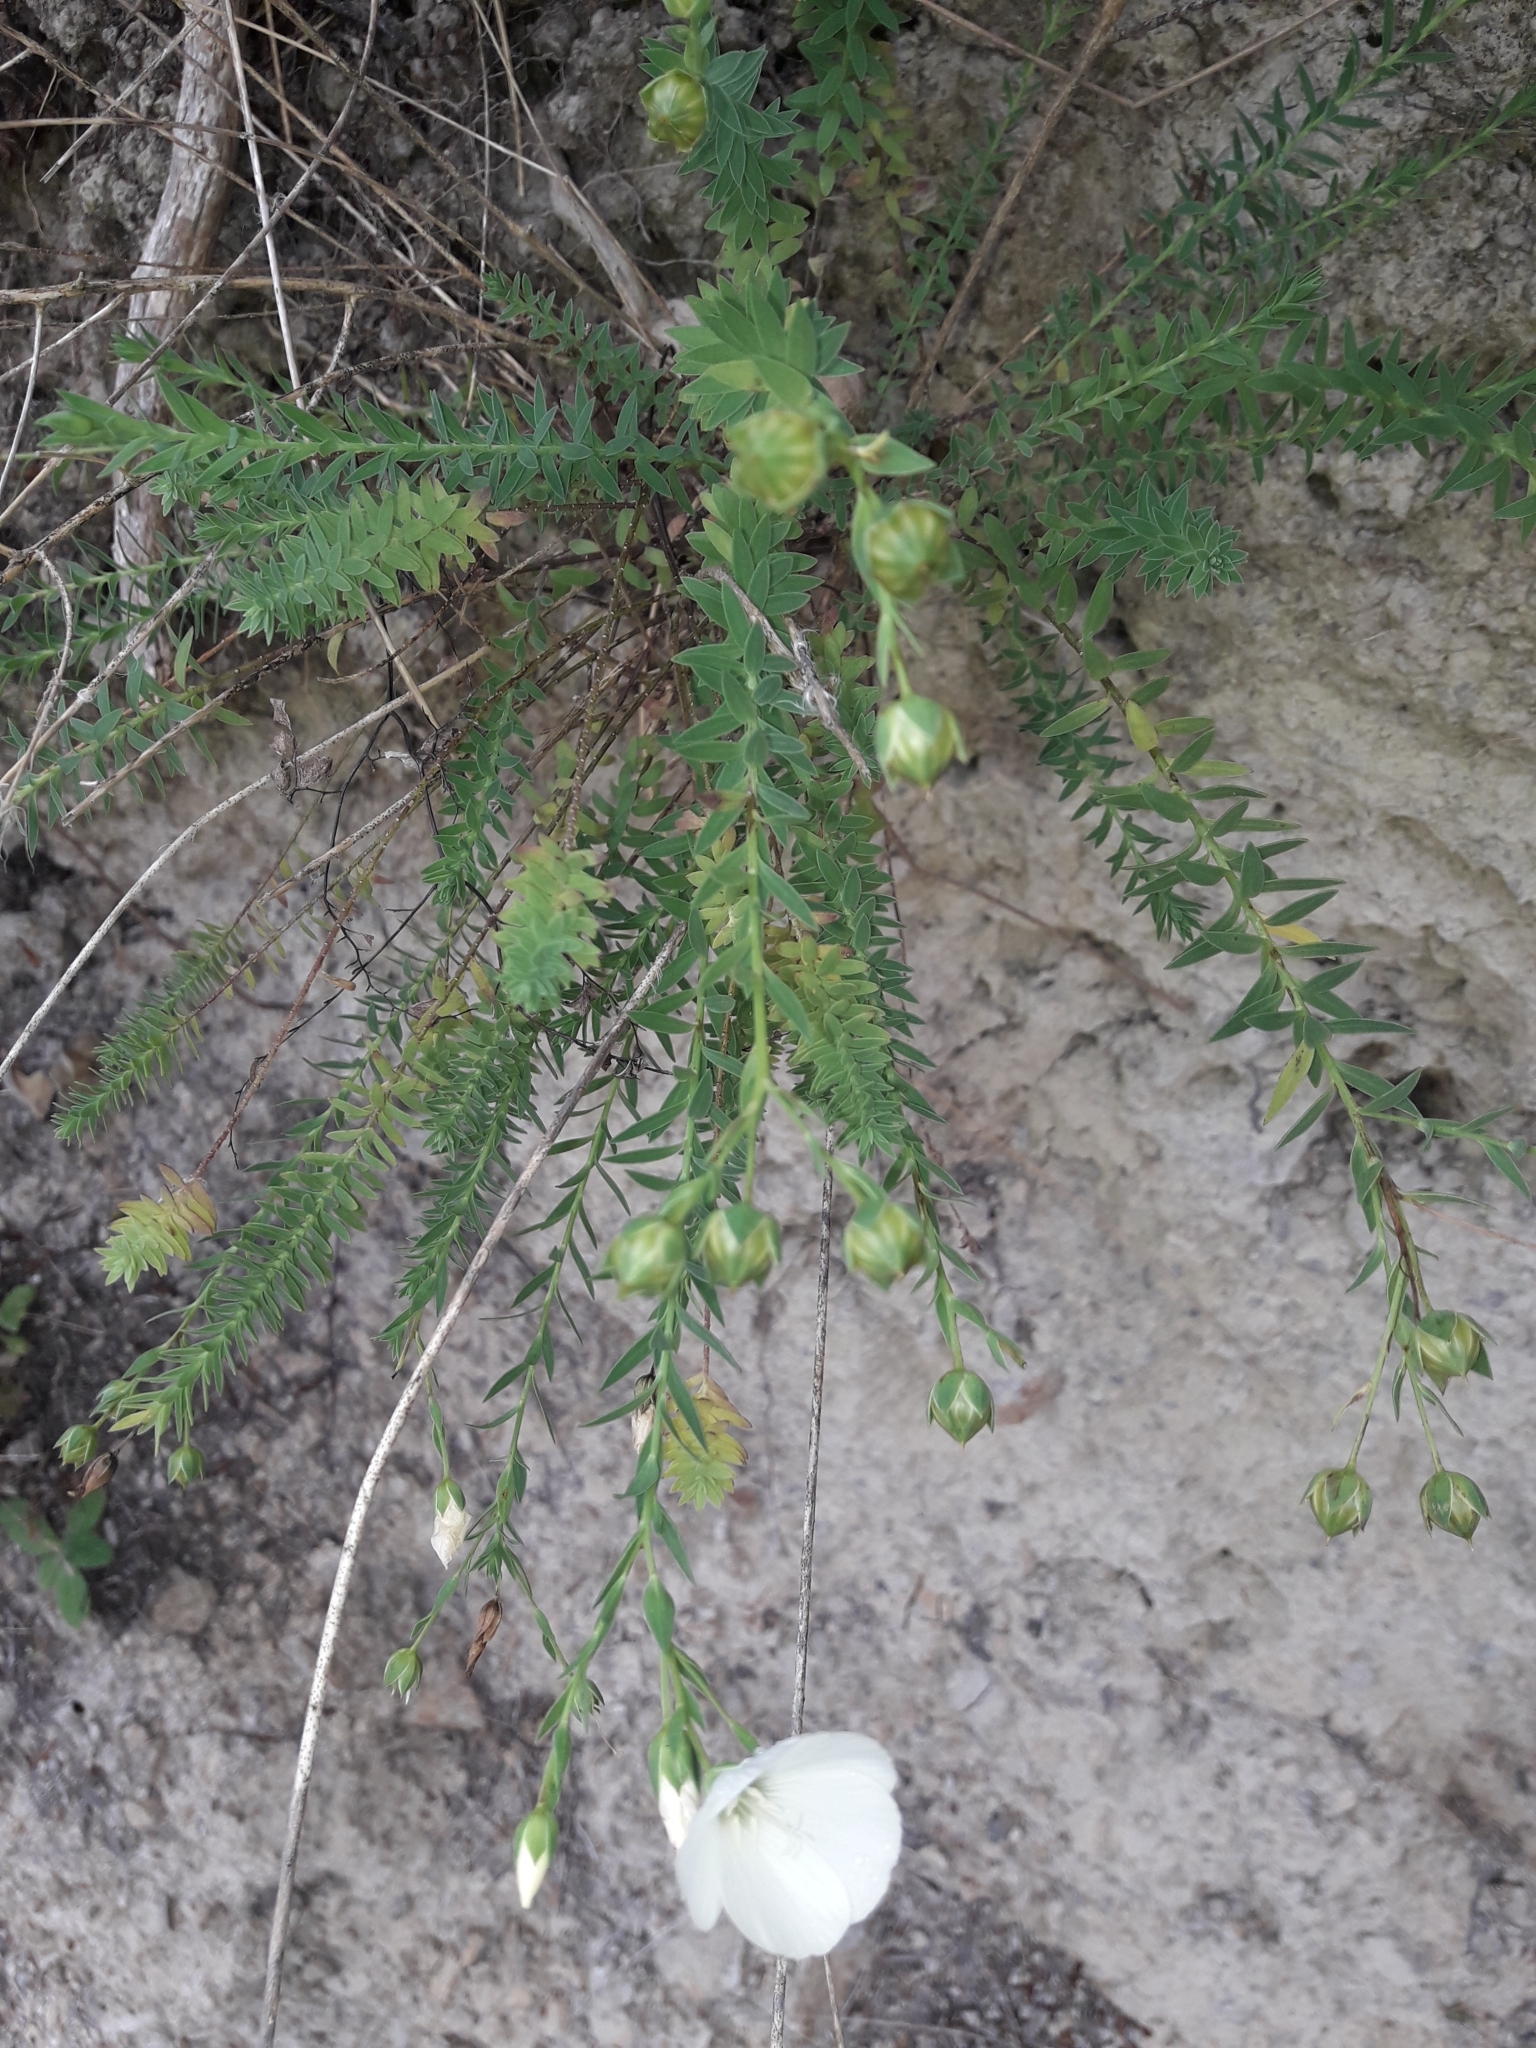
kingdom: Plantae
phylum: Tracheophyta
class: Magnoliopsida
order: Malpighiales
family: Linaceae
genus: Linum
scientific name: Linum monogynum
